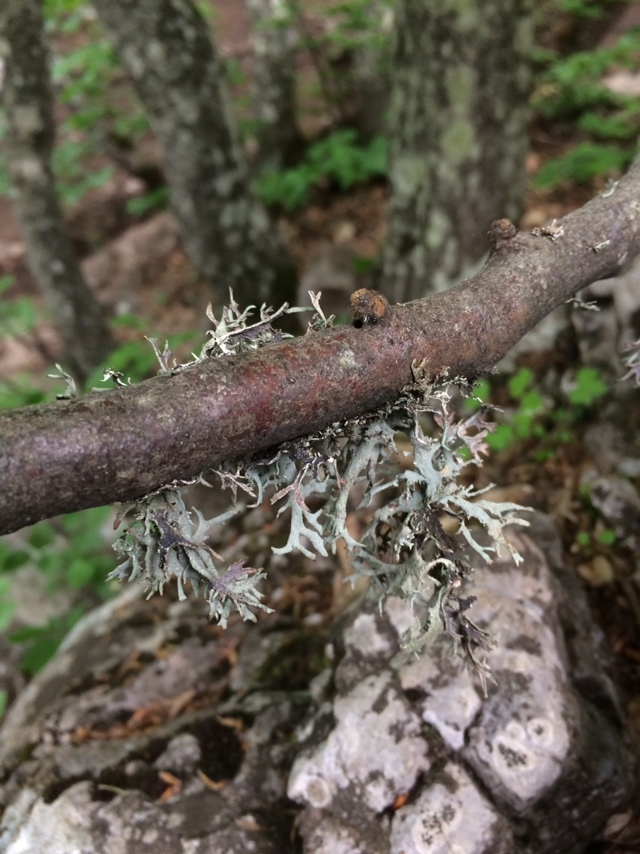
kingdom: Fungi
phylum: Ascomycota
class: Lecanoromycetes
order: Lecanorales
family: Parmeliaceae
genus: Pseudevernia
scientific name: Pseudevernia furfuracea
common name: Tree moss
